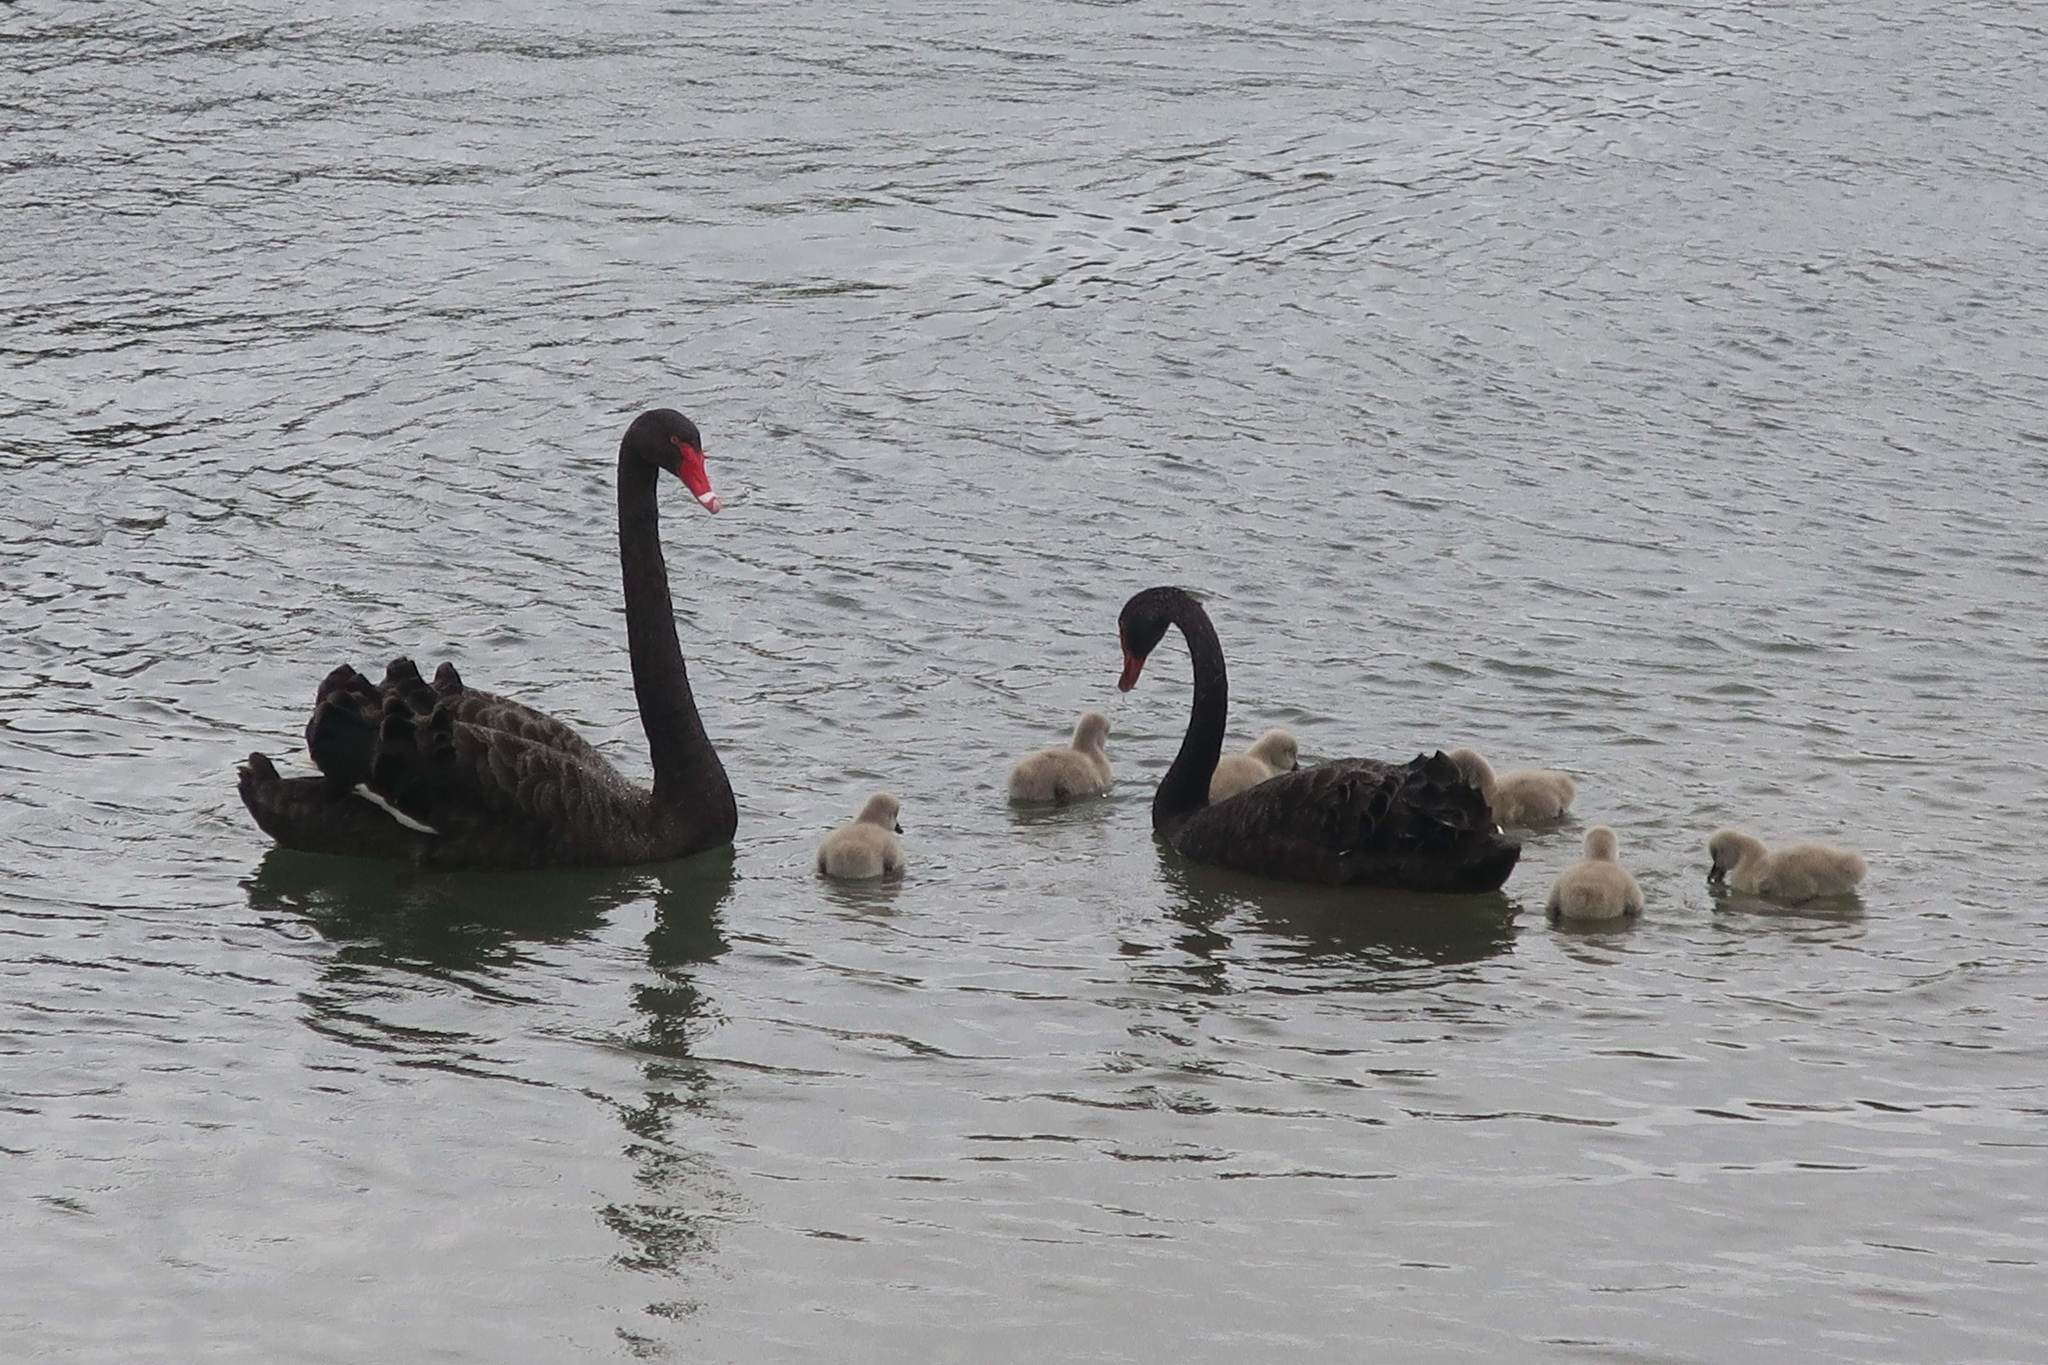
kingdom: Animalia
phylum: Chordata
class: Aves
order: Anseriformes
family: Anatidae
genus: Cygnus
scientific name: Cygnus atratus
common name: Black swan
